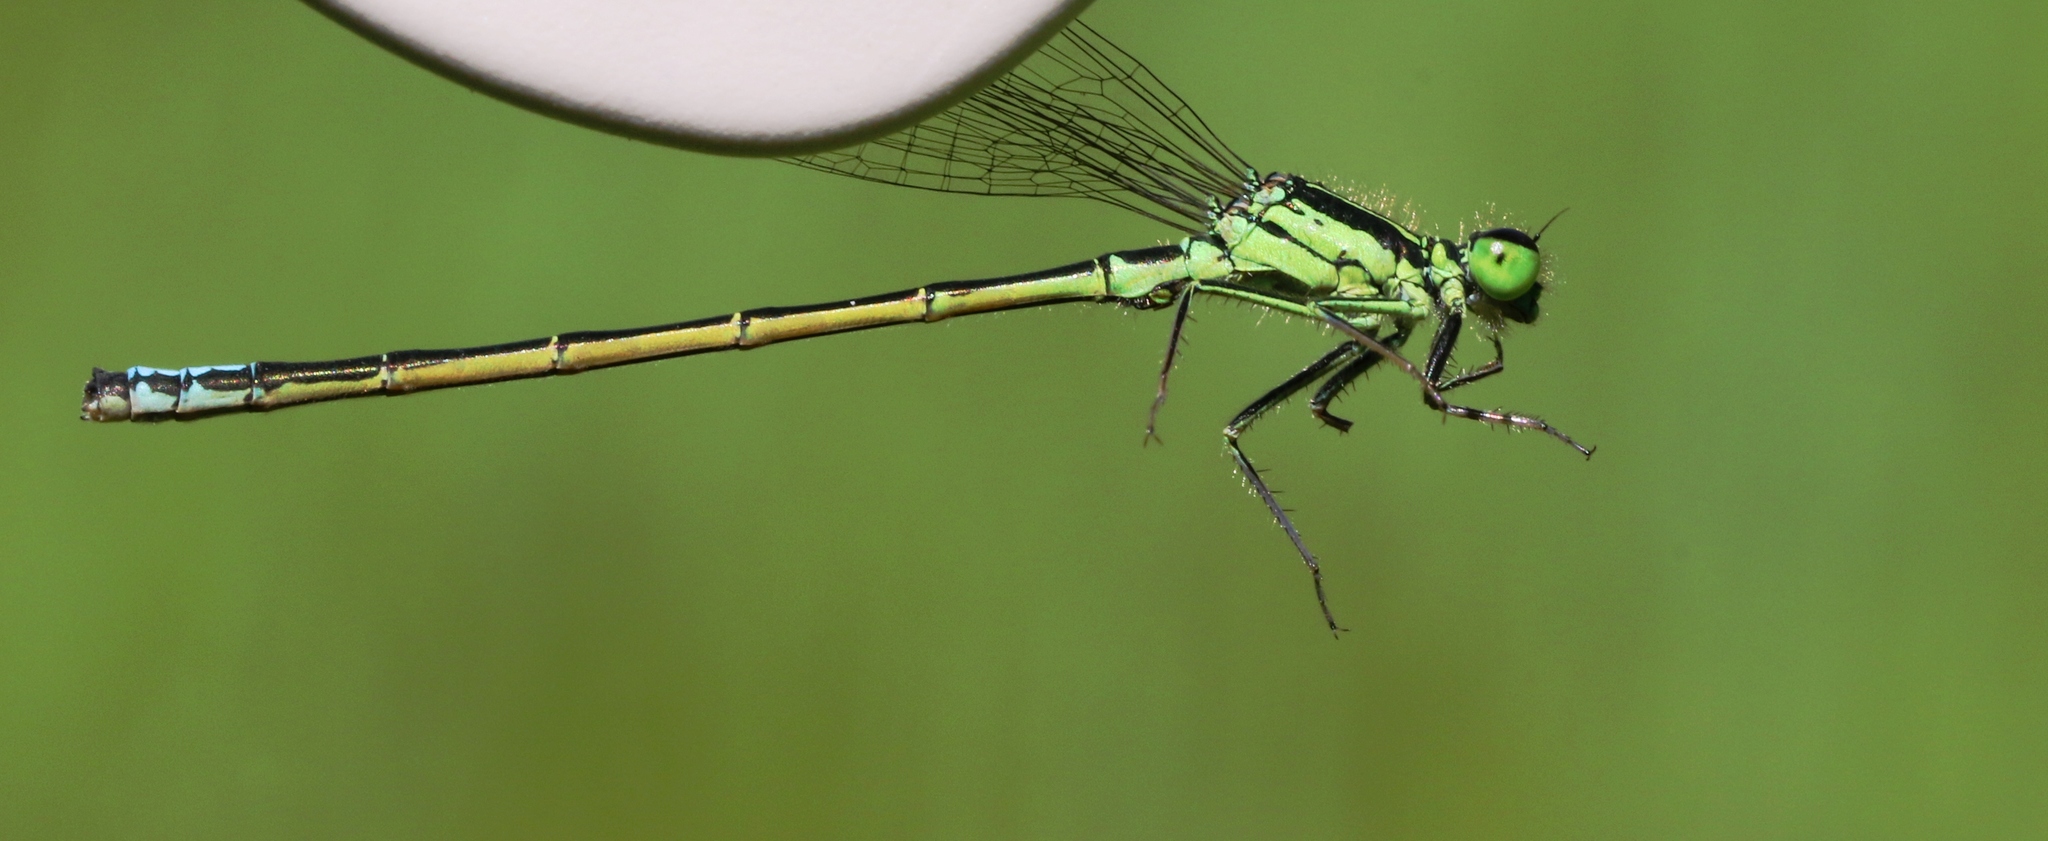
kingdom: Animalia
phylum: Arthropoda
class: Insecta
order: Odonata
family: Coenagrionidae
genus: Ischnura
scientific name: Ischnura verticalis
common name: Eastern forktail
